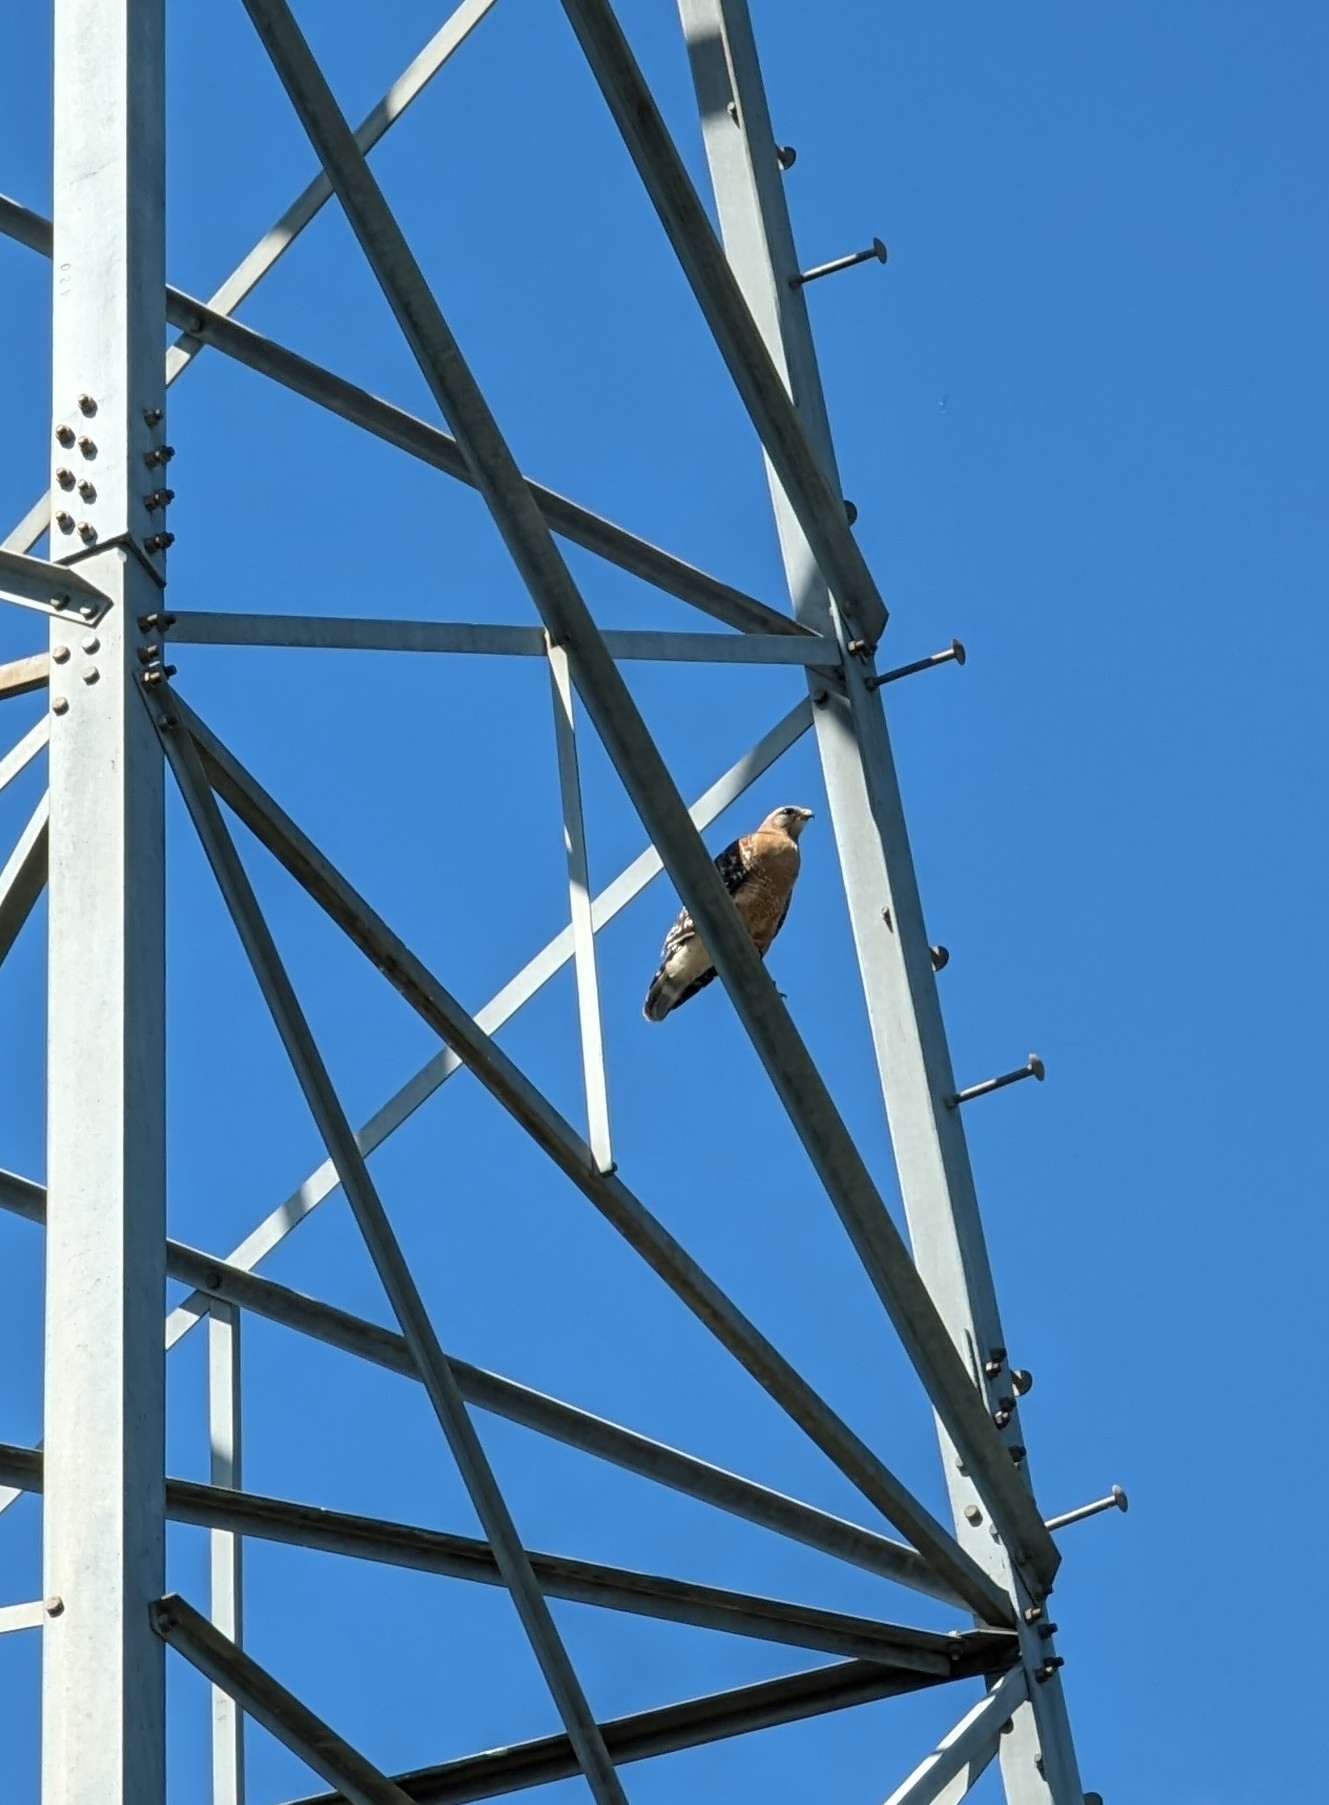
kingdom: Animalia
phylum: Chordata
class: Aves
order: Accipitriformes
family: Accipitridae
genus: Buteo
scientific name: Buteo lineatus
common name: Red-shouldered hawk
